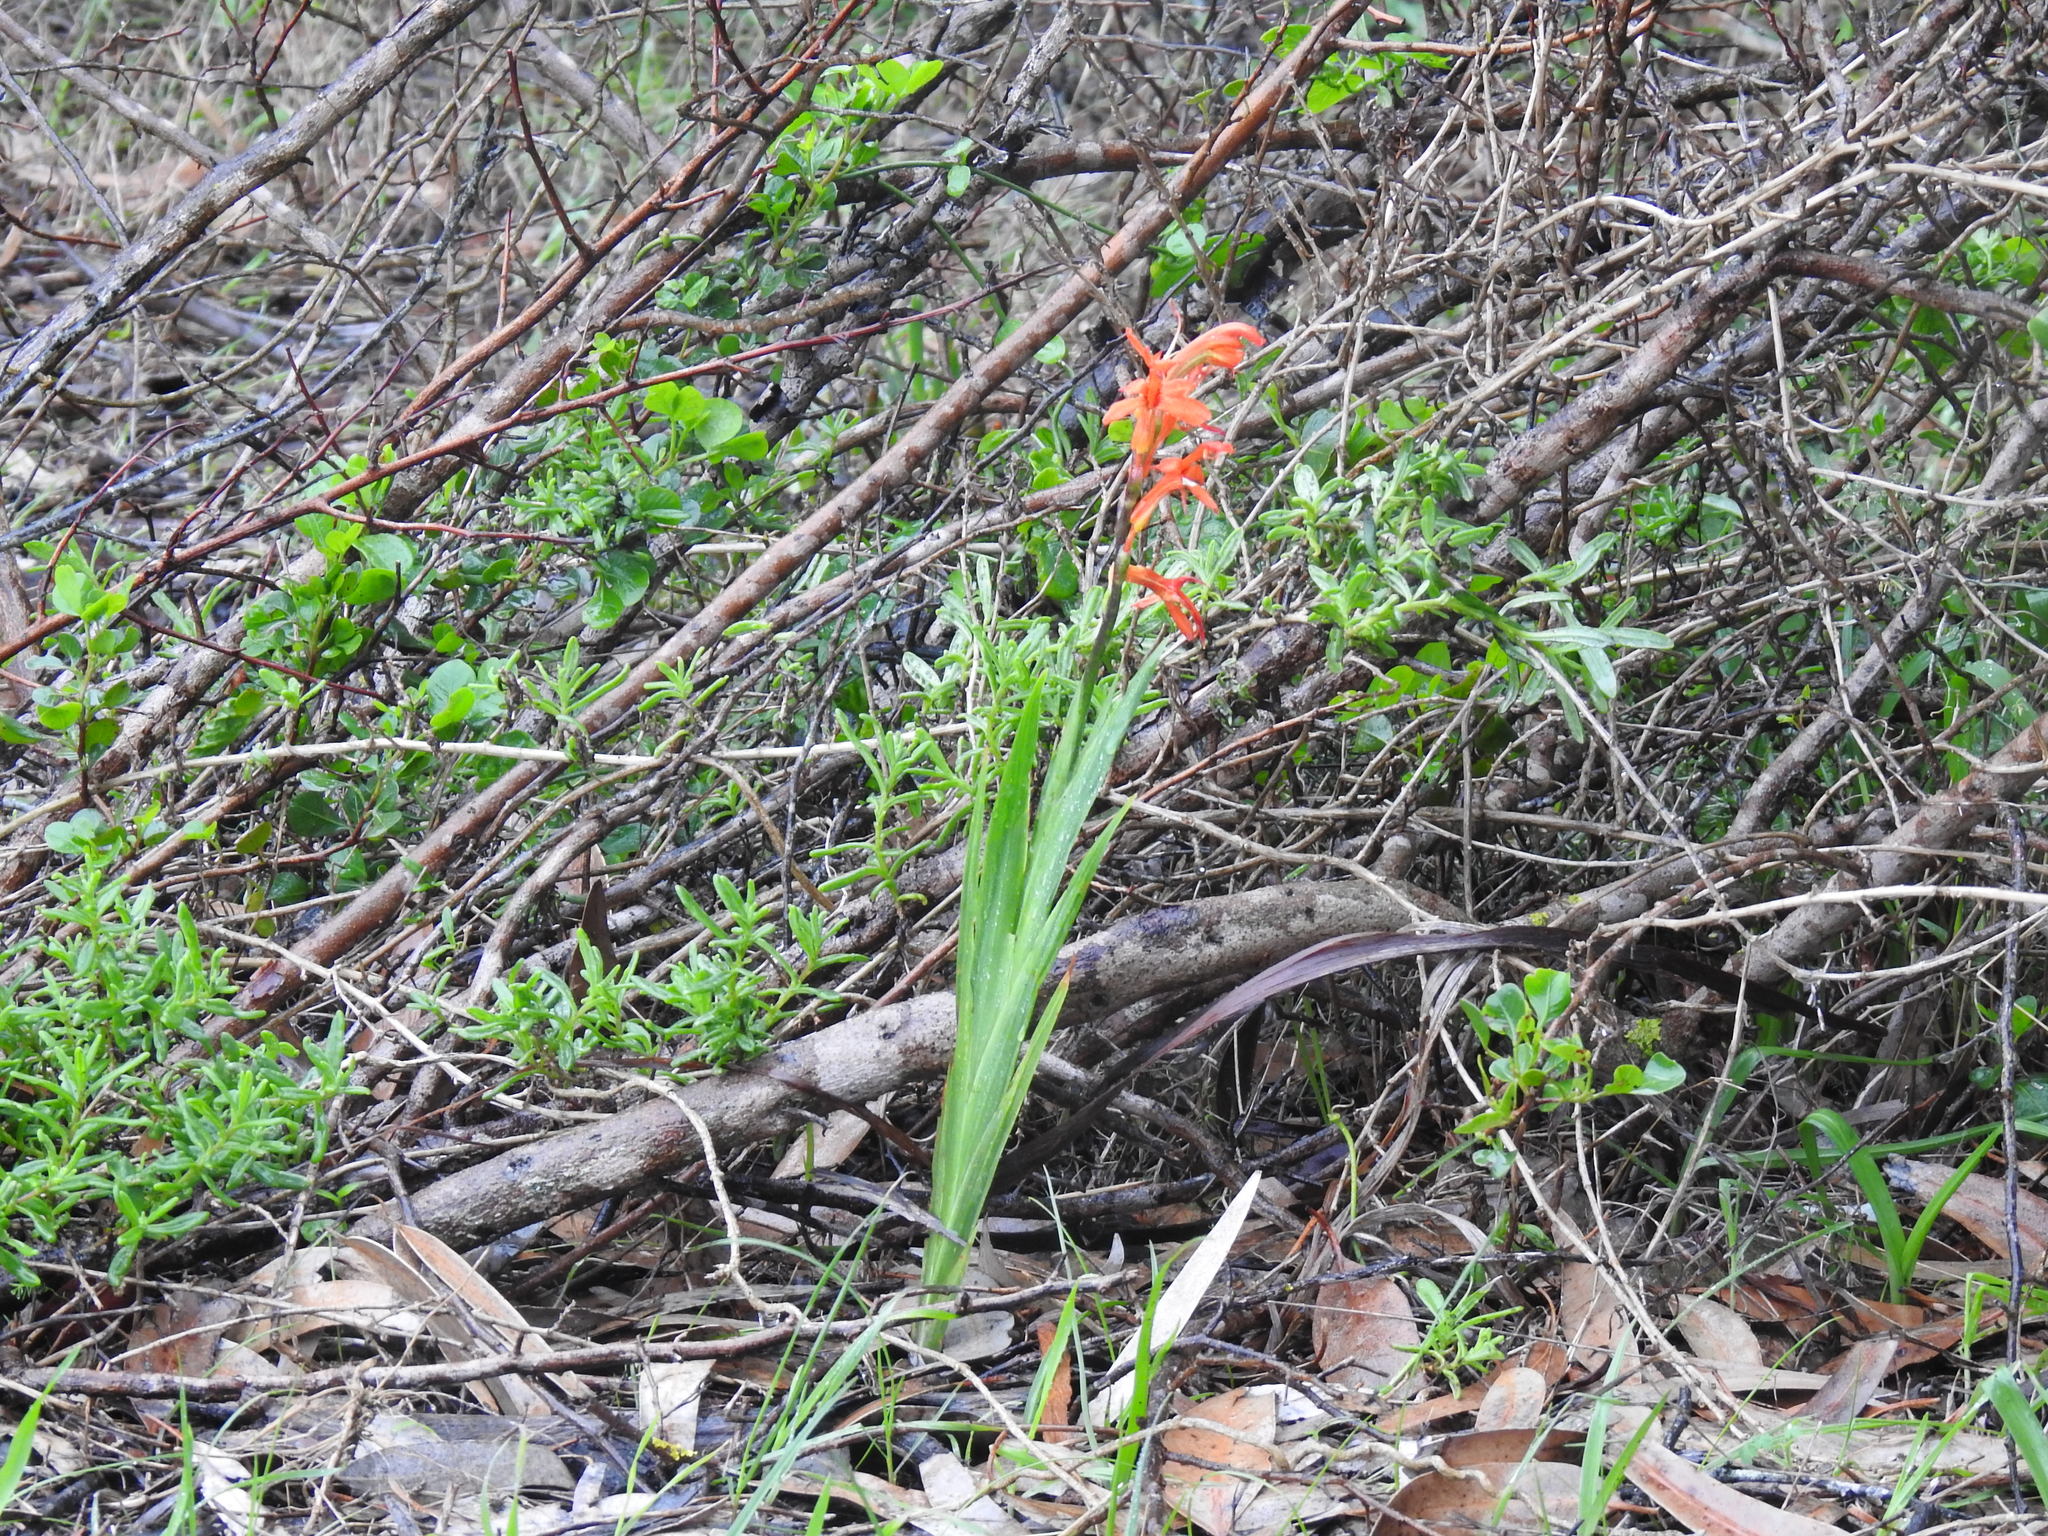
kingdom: Plantae
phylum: Tracheophyta
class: Liliopsida
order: Asparagales
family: Iridaceae
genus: Chasmanthe
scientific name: Chasmanthe aethiopica
